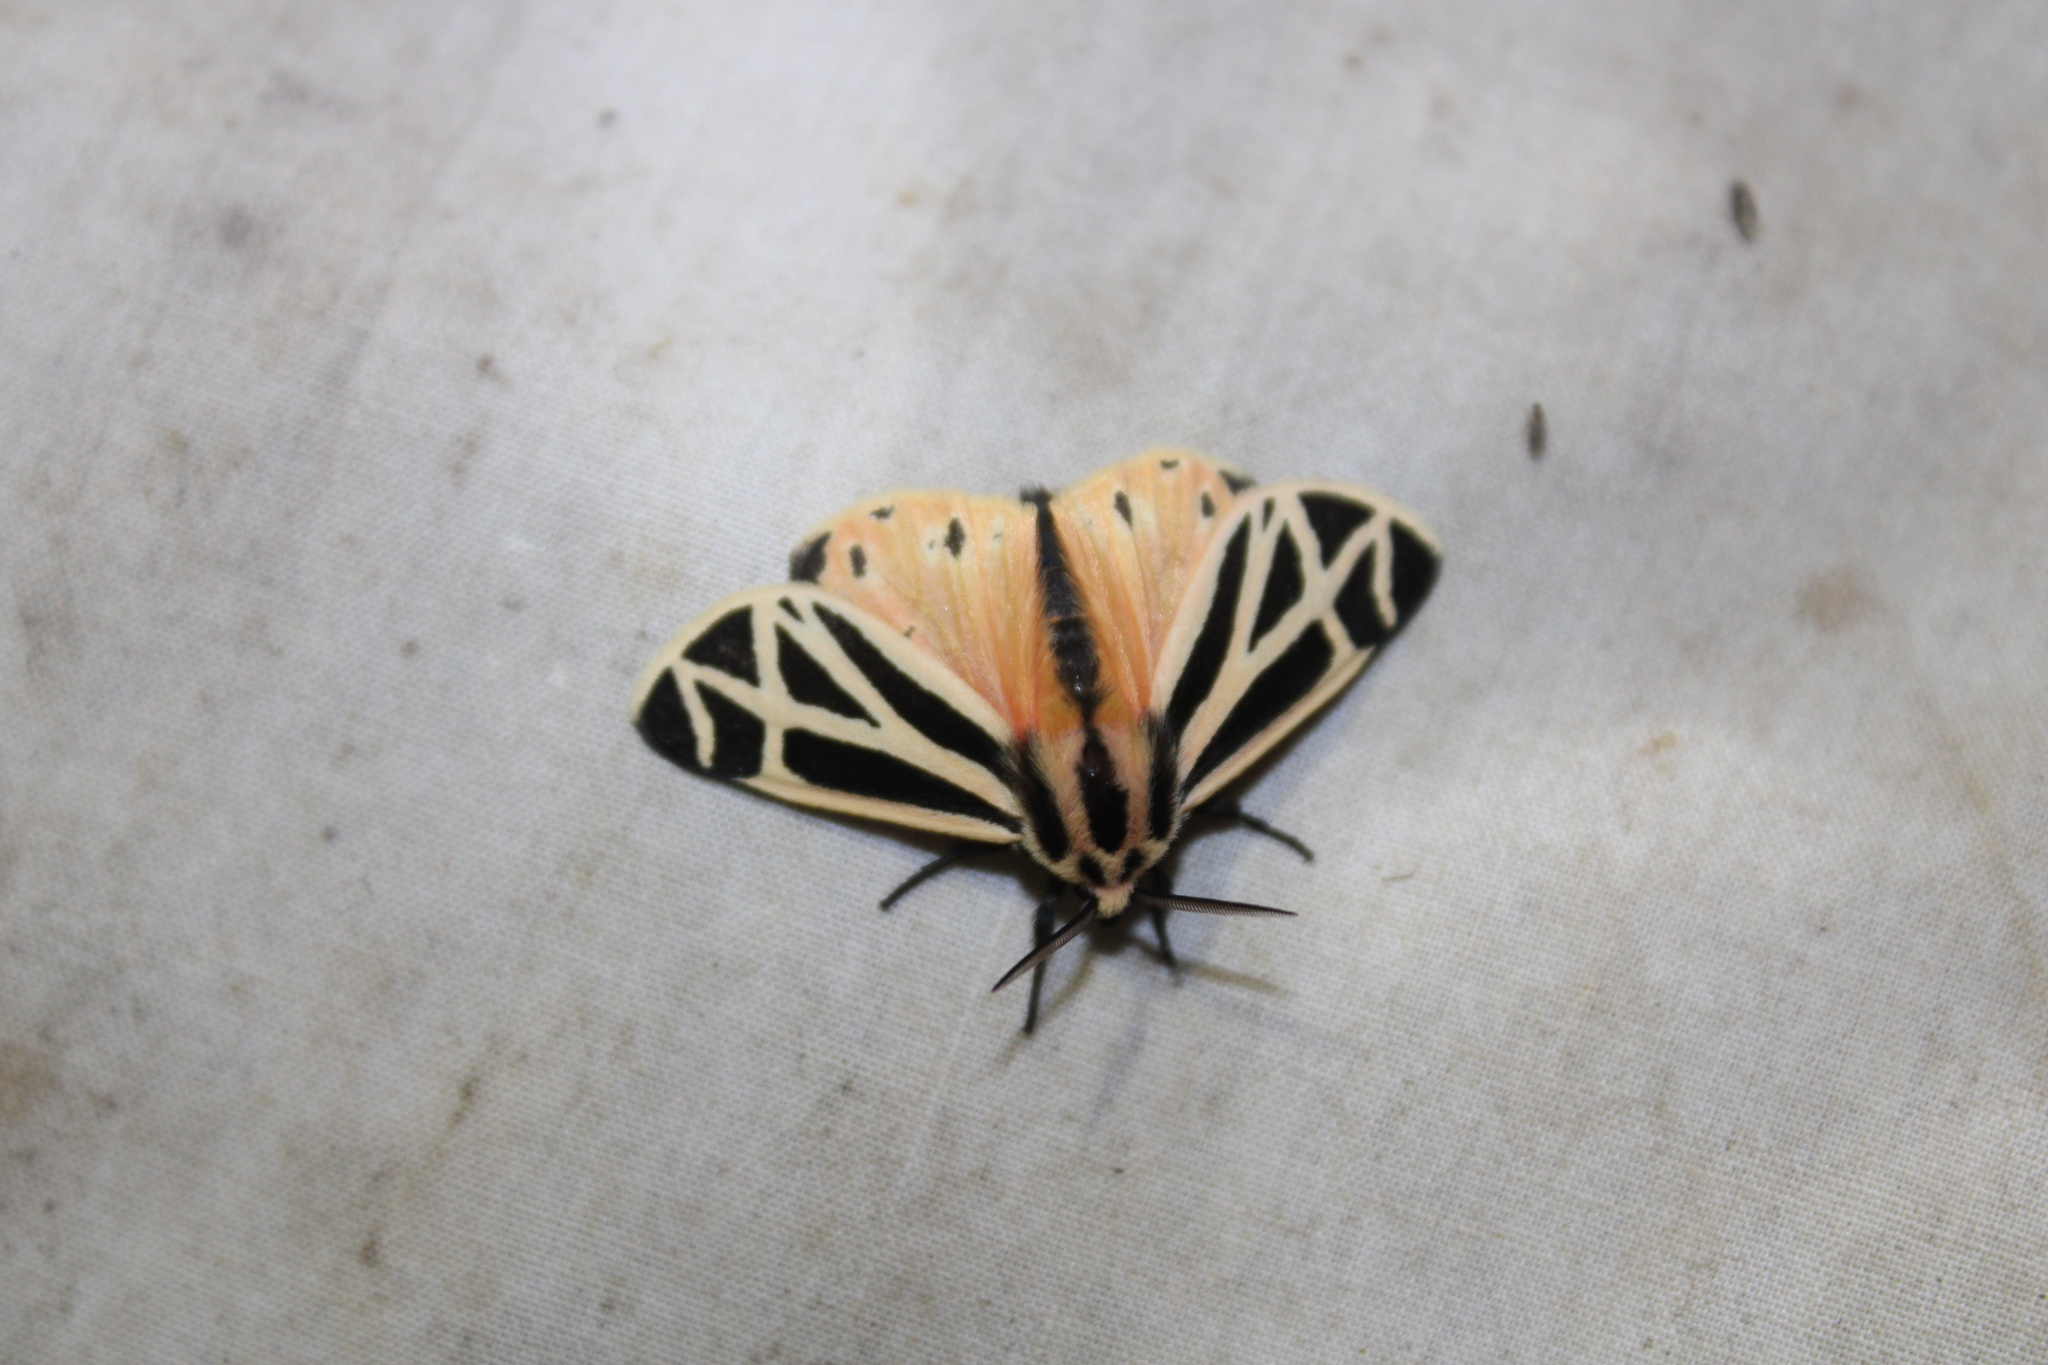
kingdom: Animalia
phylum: Arthropoda
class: Insecta
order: Lepidoptera
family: Erebidae
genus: Apantesis
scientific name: Apantesis phalerata
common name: Harnessed tiger moth
